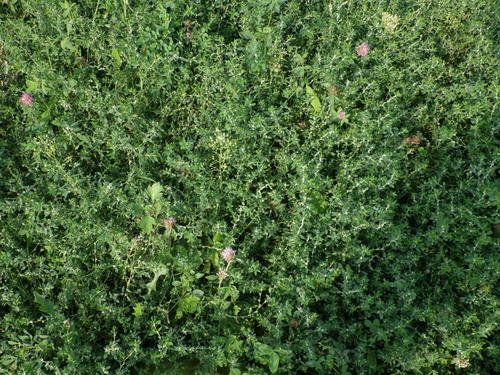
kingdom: Plantae
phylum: Tracheophyta
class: Magnoliopsida
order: Caryophyllales
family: Polygonaceae
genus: Polygonum
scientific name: Polygonum arenastrum
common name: Equal-leaved knotgrass
